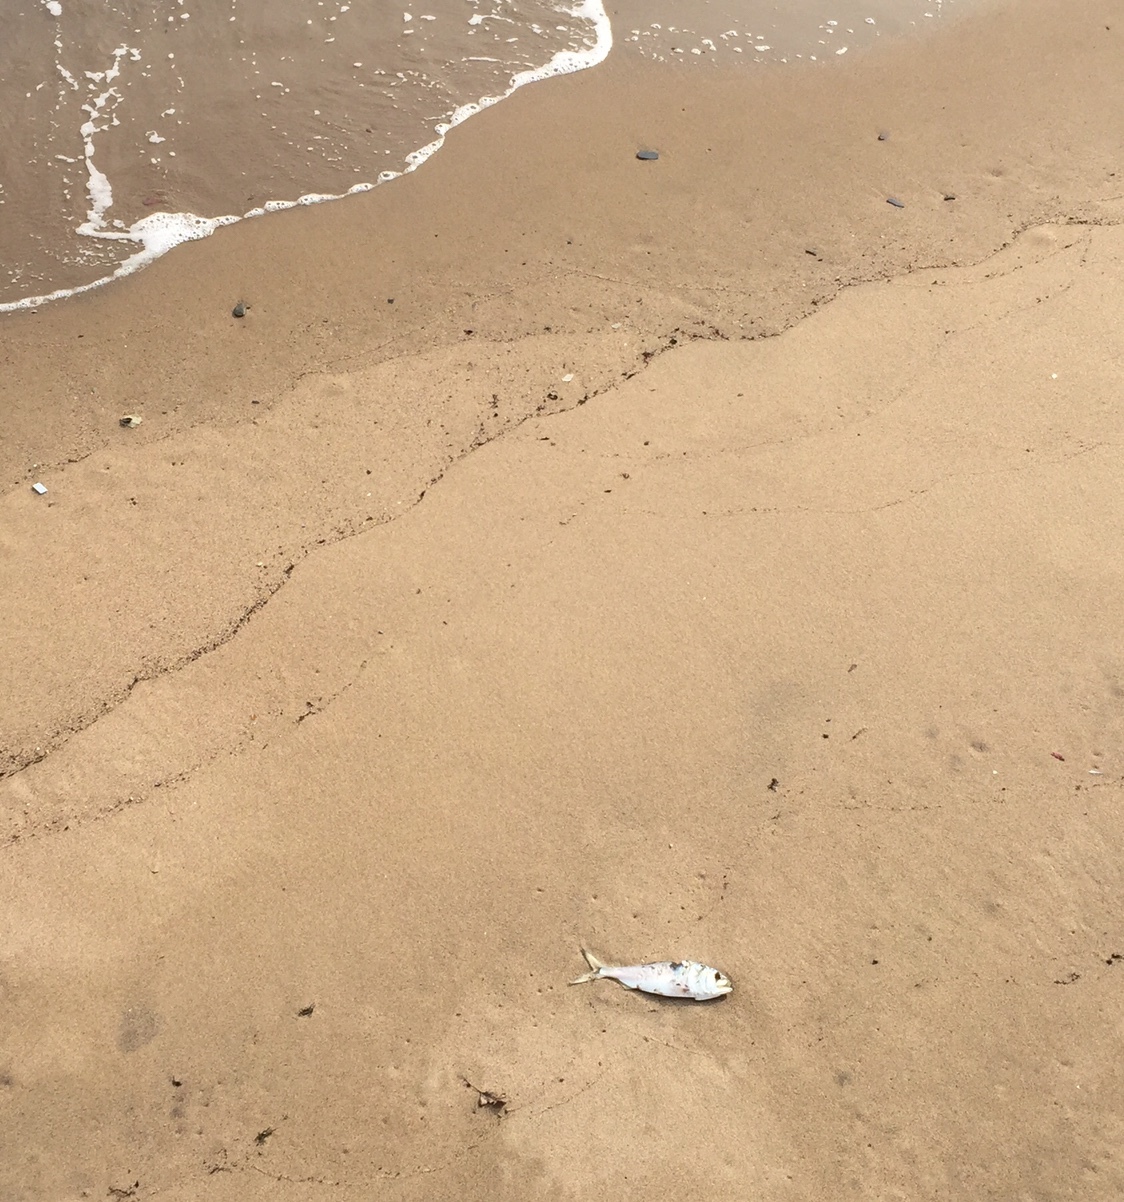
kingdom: Animalia
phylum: Chordata
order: Clupeiformes
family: Clupeidae
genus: Brevoortia
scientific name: Brevoortia tyrannus
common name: Atlantic menhaden
